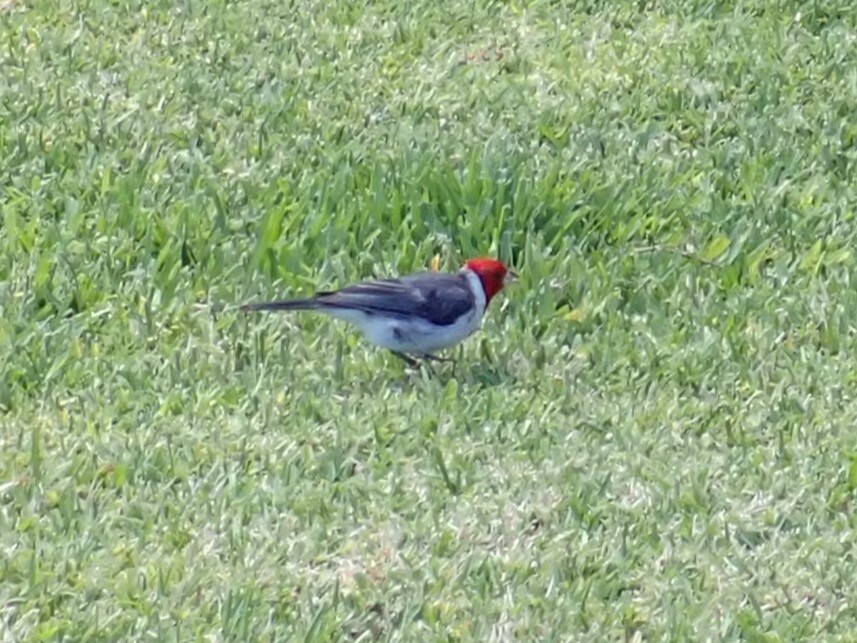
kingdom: Animalia
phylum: Chordata
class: Aves
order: Passeriformes
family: Thraupidae
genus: Paroaria
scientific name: Paroaria coronata
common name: Red-crested cardinal
